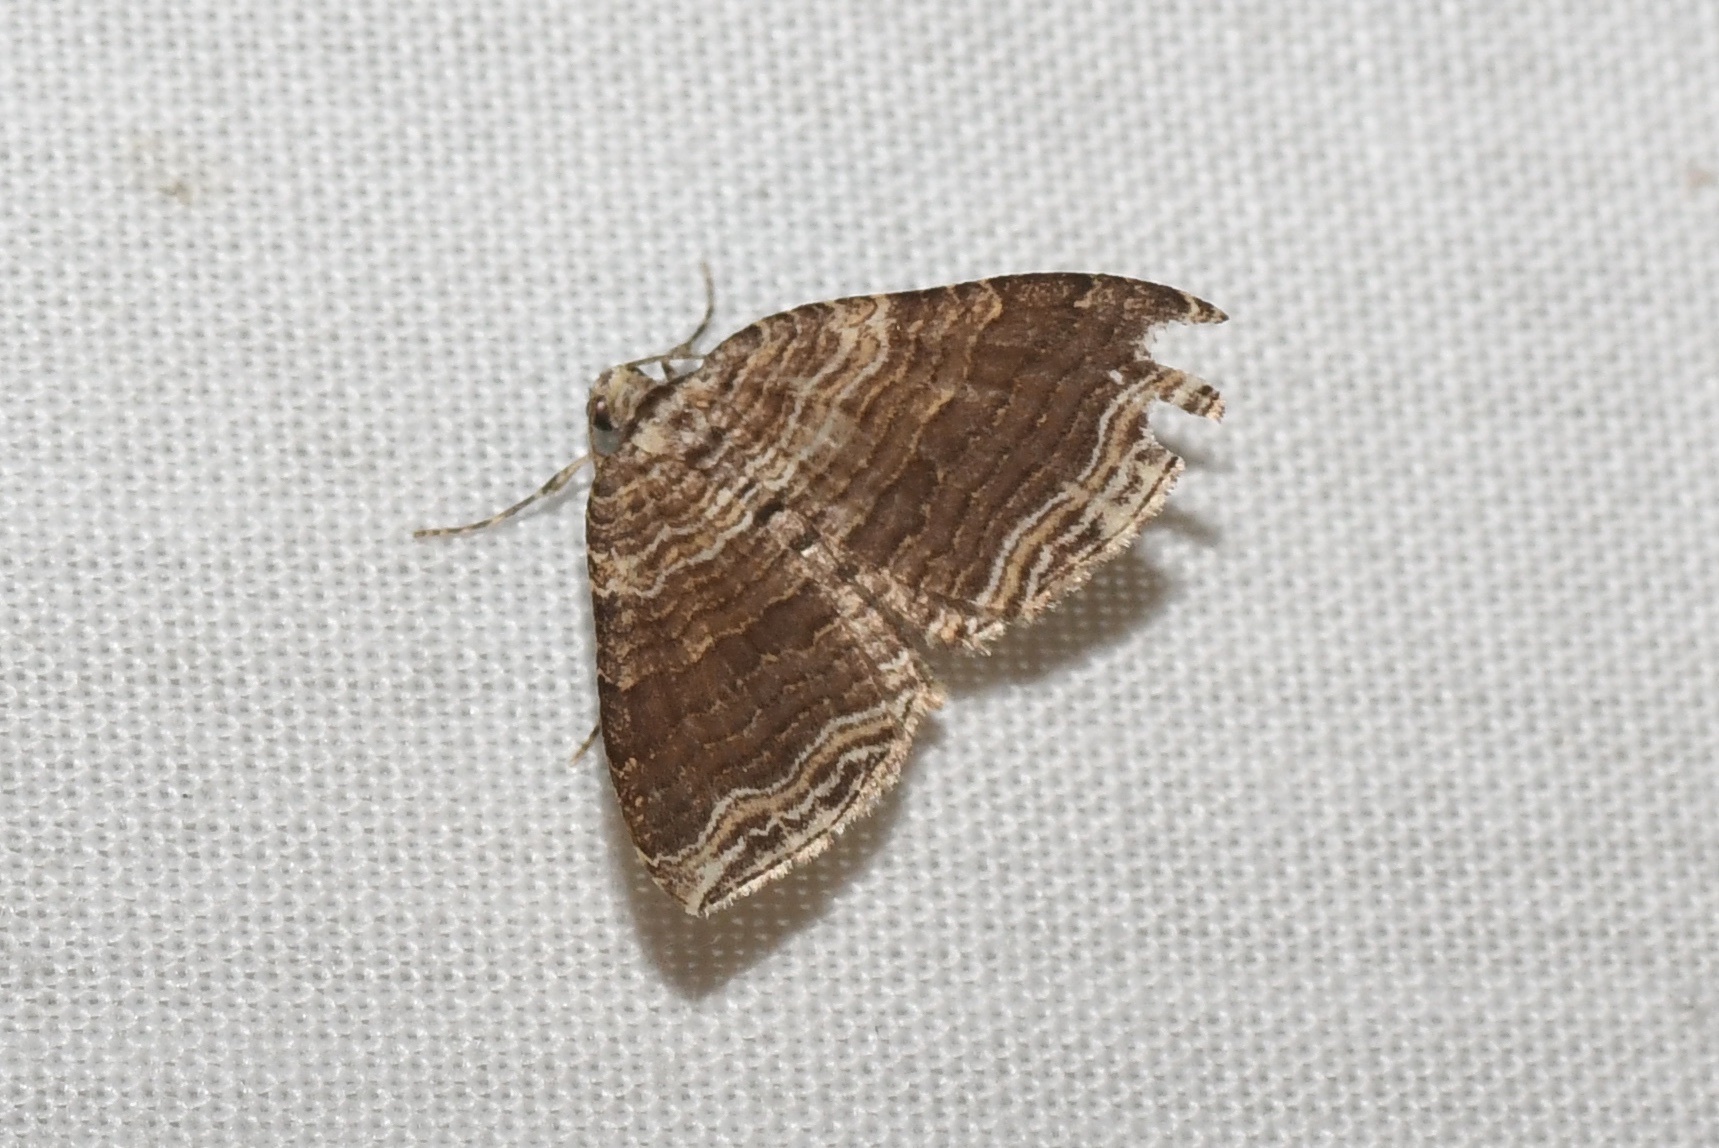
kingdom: Animalia
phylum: Arthropoda
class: Insecta
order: Lepidoptera
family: Geometridae
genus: Anticlea
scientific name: Anticlea multiferata
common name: Many-lined carpet
